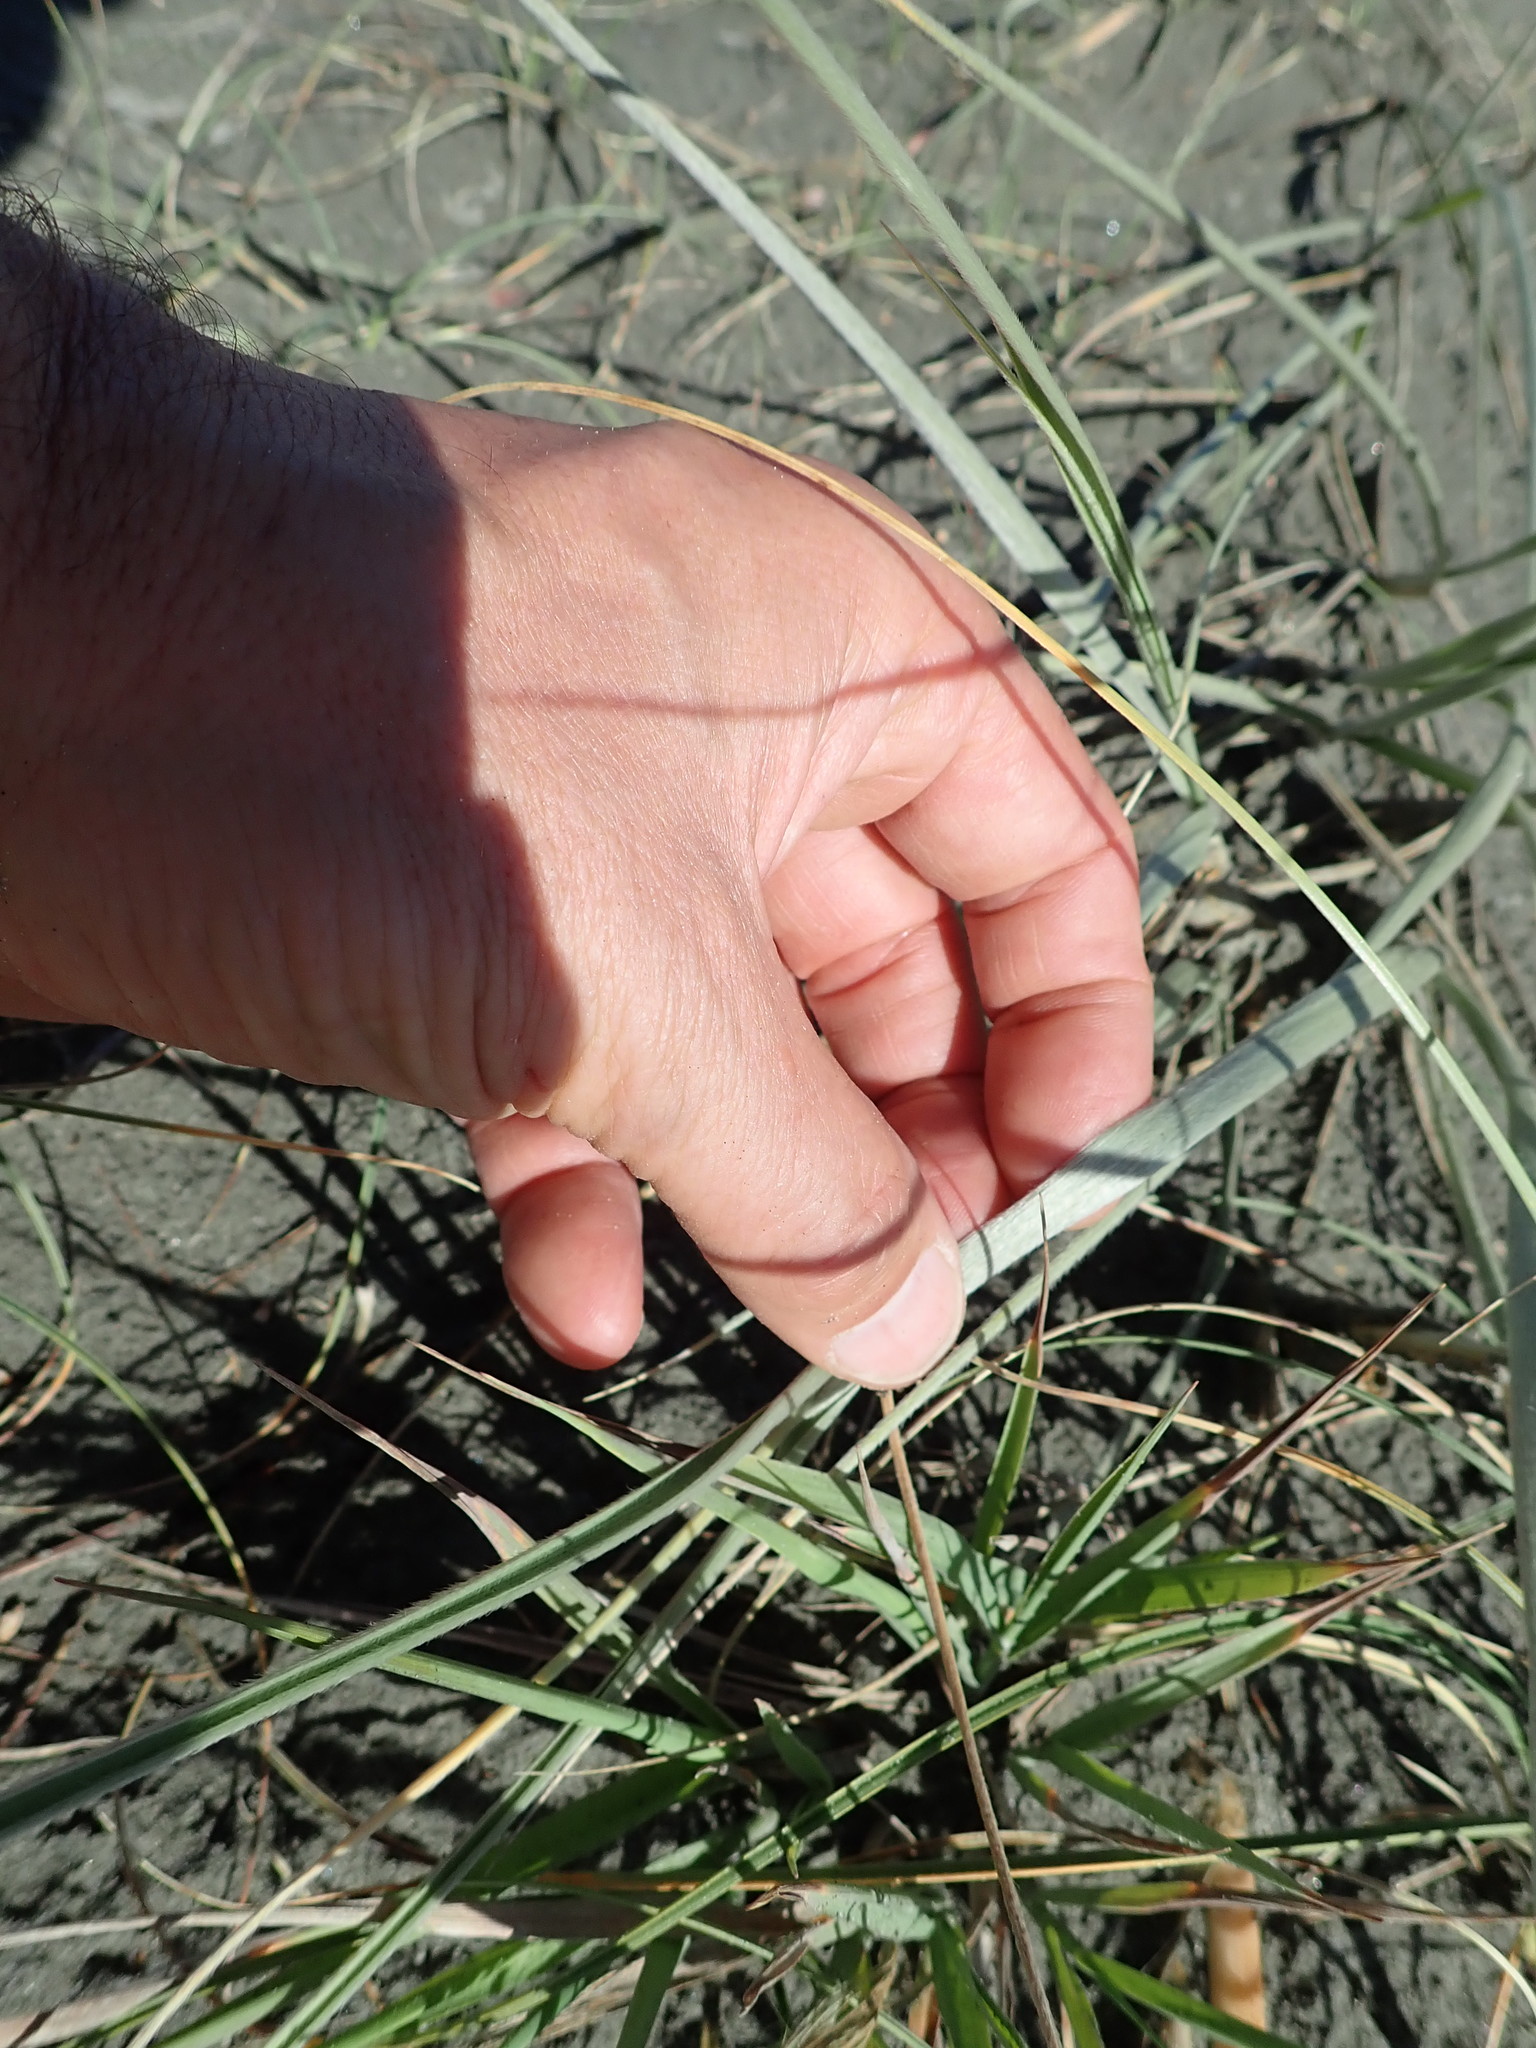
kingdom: Plantae
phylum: Tracheophyta
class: Liliopsida
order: Poales
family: Poaceae
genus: Spinifex
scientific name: Spinifex sericeus
